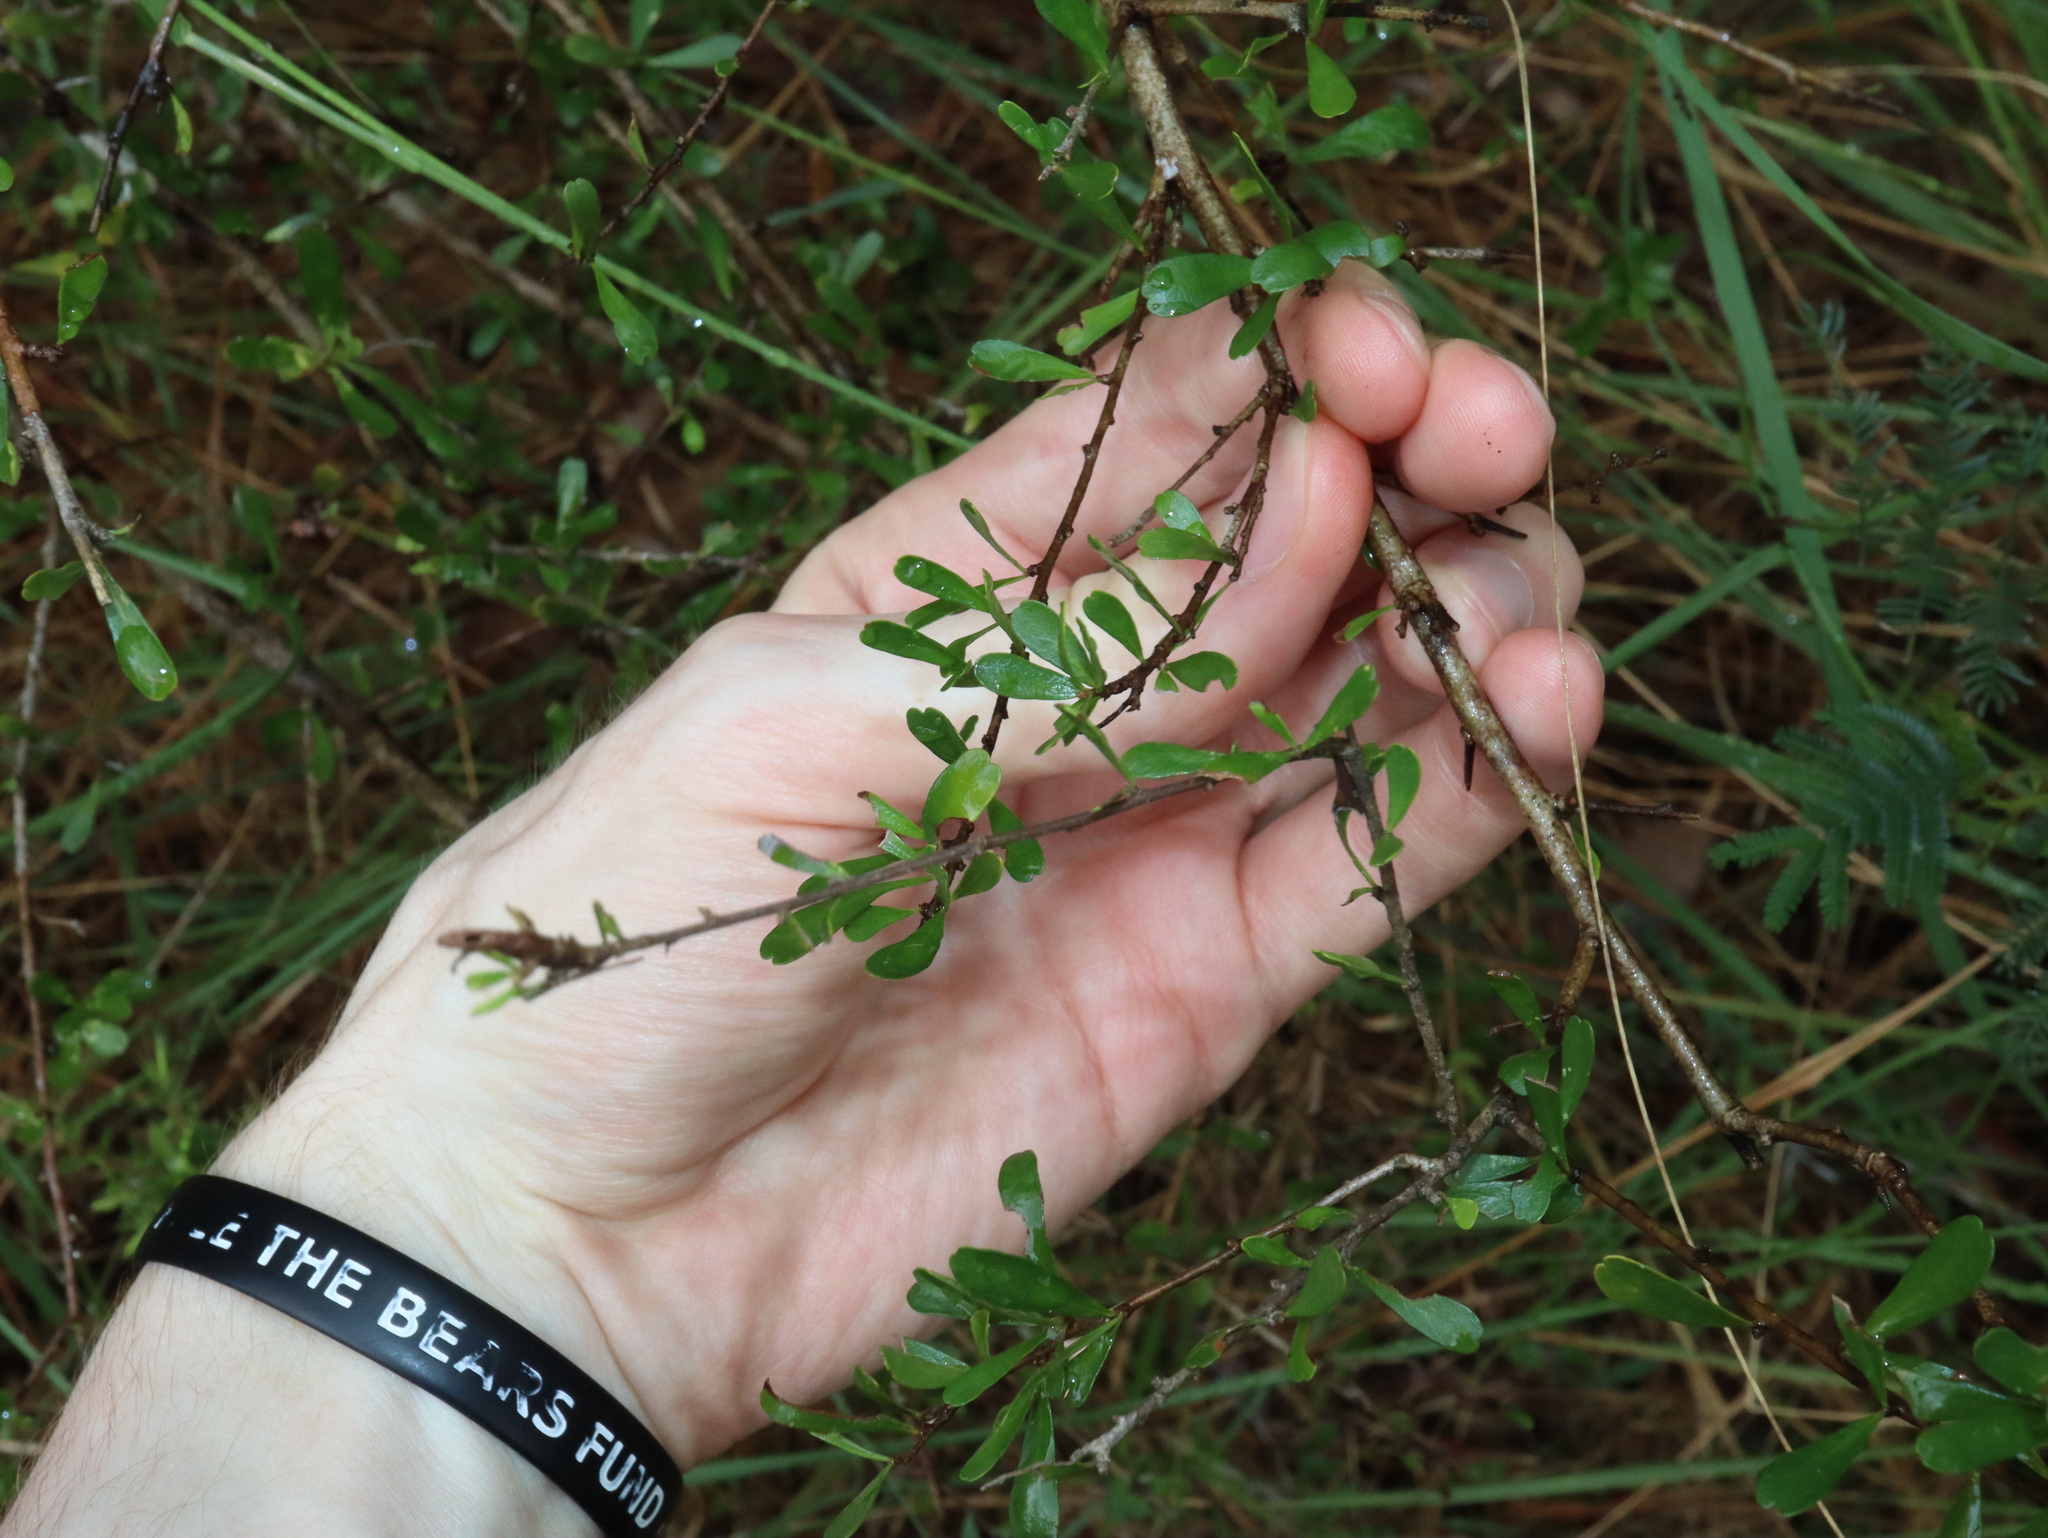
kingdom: Plantae
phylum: Tracheophyta
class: Magnoliopsida
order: Apiales
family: Pittosporaceae
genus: Bursaria
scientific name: Bursaria spinosa
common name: Australian blackthorn
